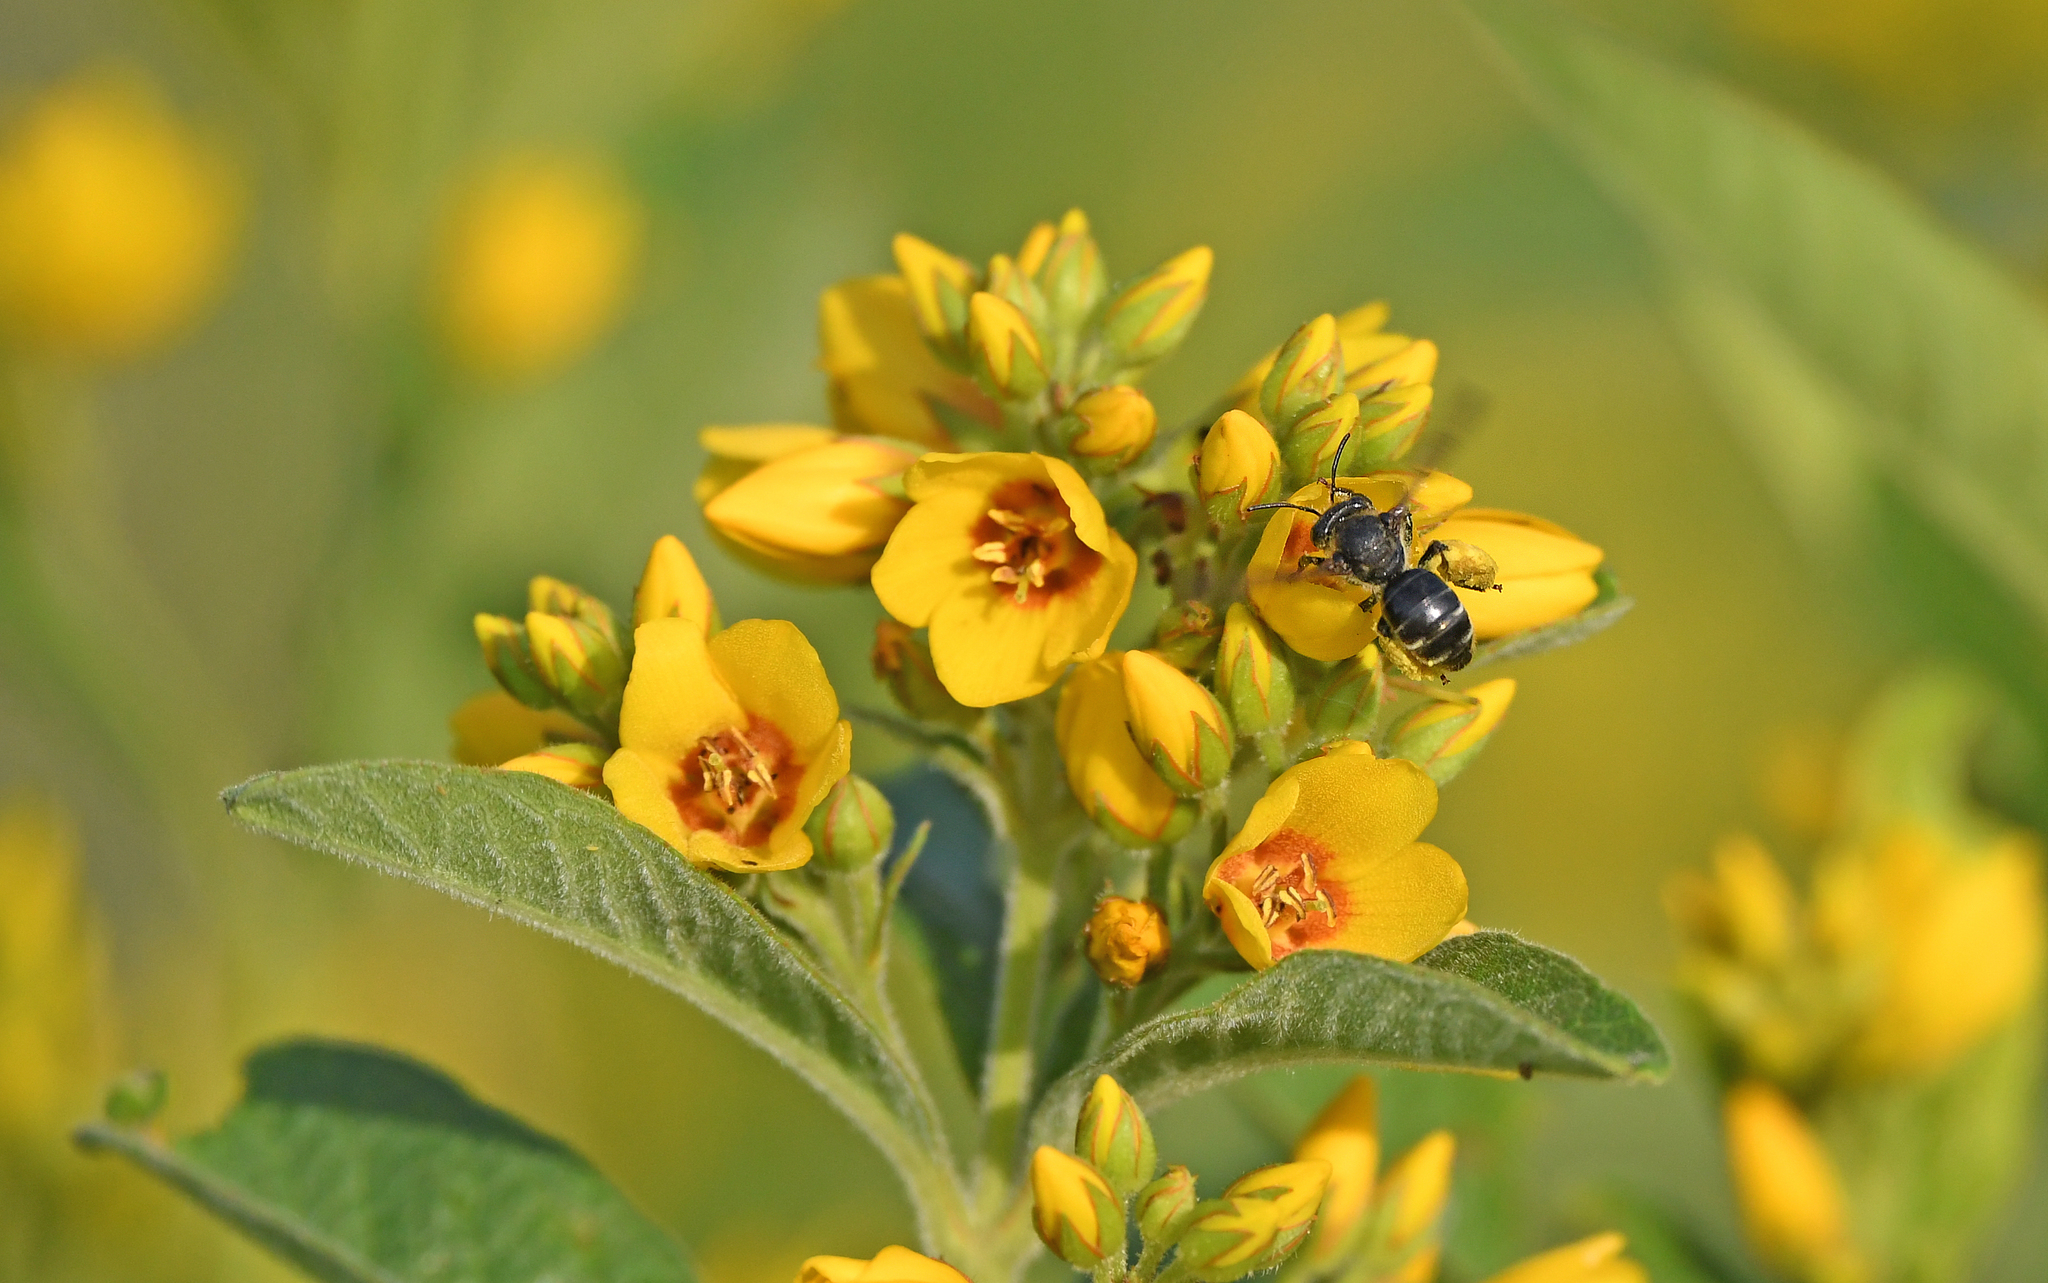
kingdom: Animalia
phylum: Arthropoda
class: Insecta
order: Hymenoptera
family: Melittidae
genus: Macropis
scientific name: Macropis europaea
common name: Yellow loosestrife bee
